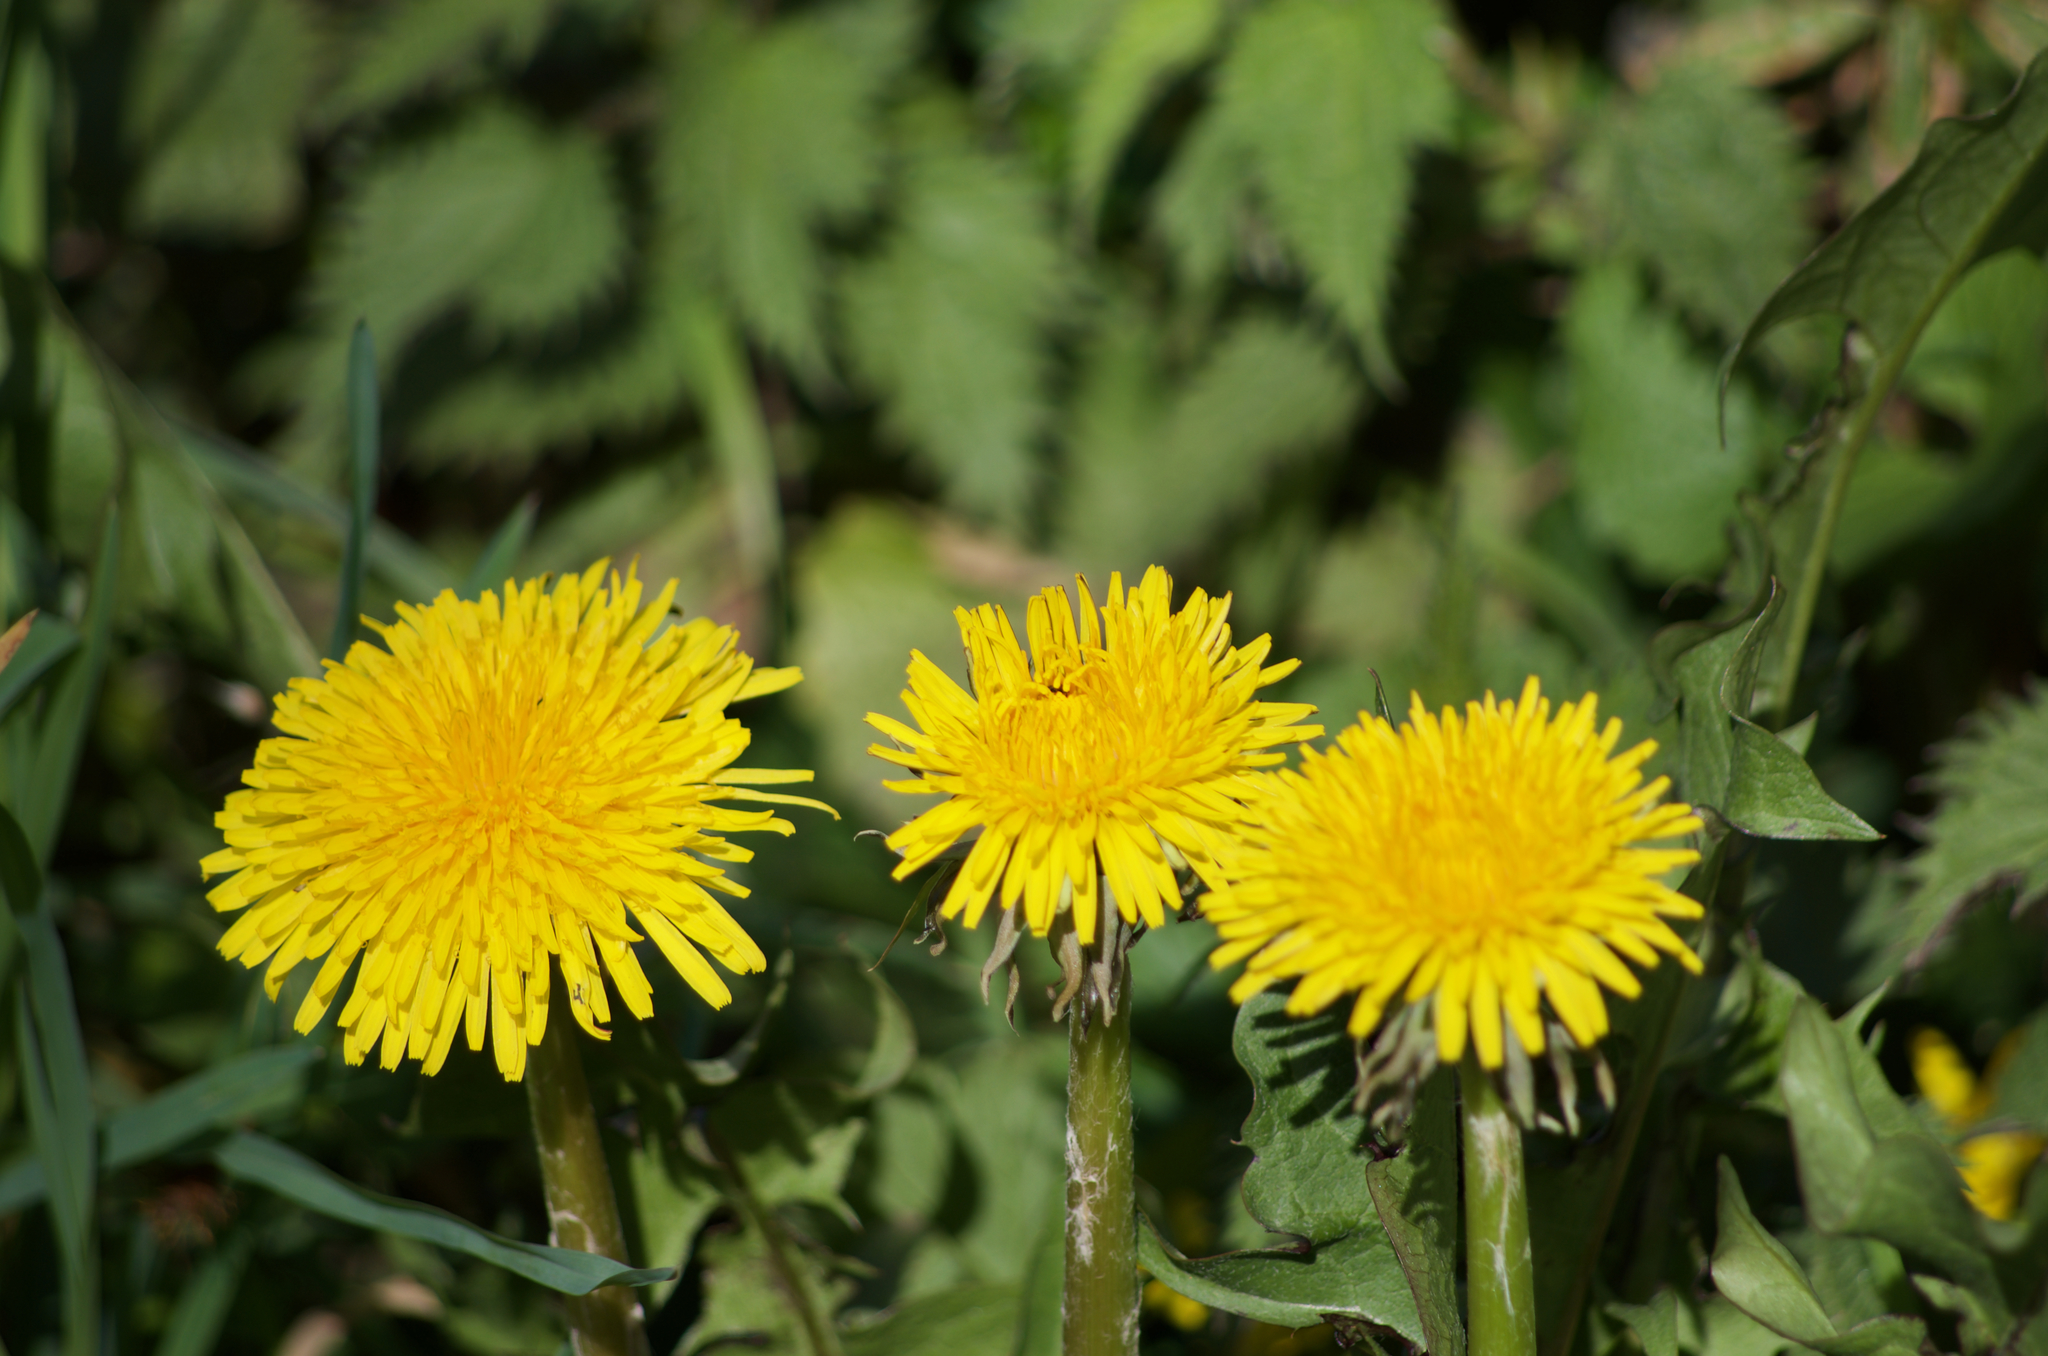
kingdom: Plantae
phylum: Tracheophyta
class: Magnoliopsida
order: Asterales
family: Asteraceae
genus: Taraxacum
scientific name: Taraxacum
